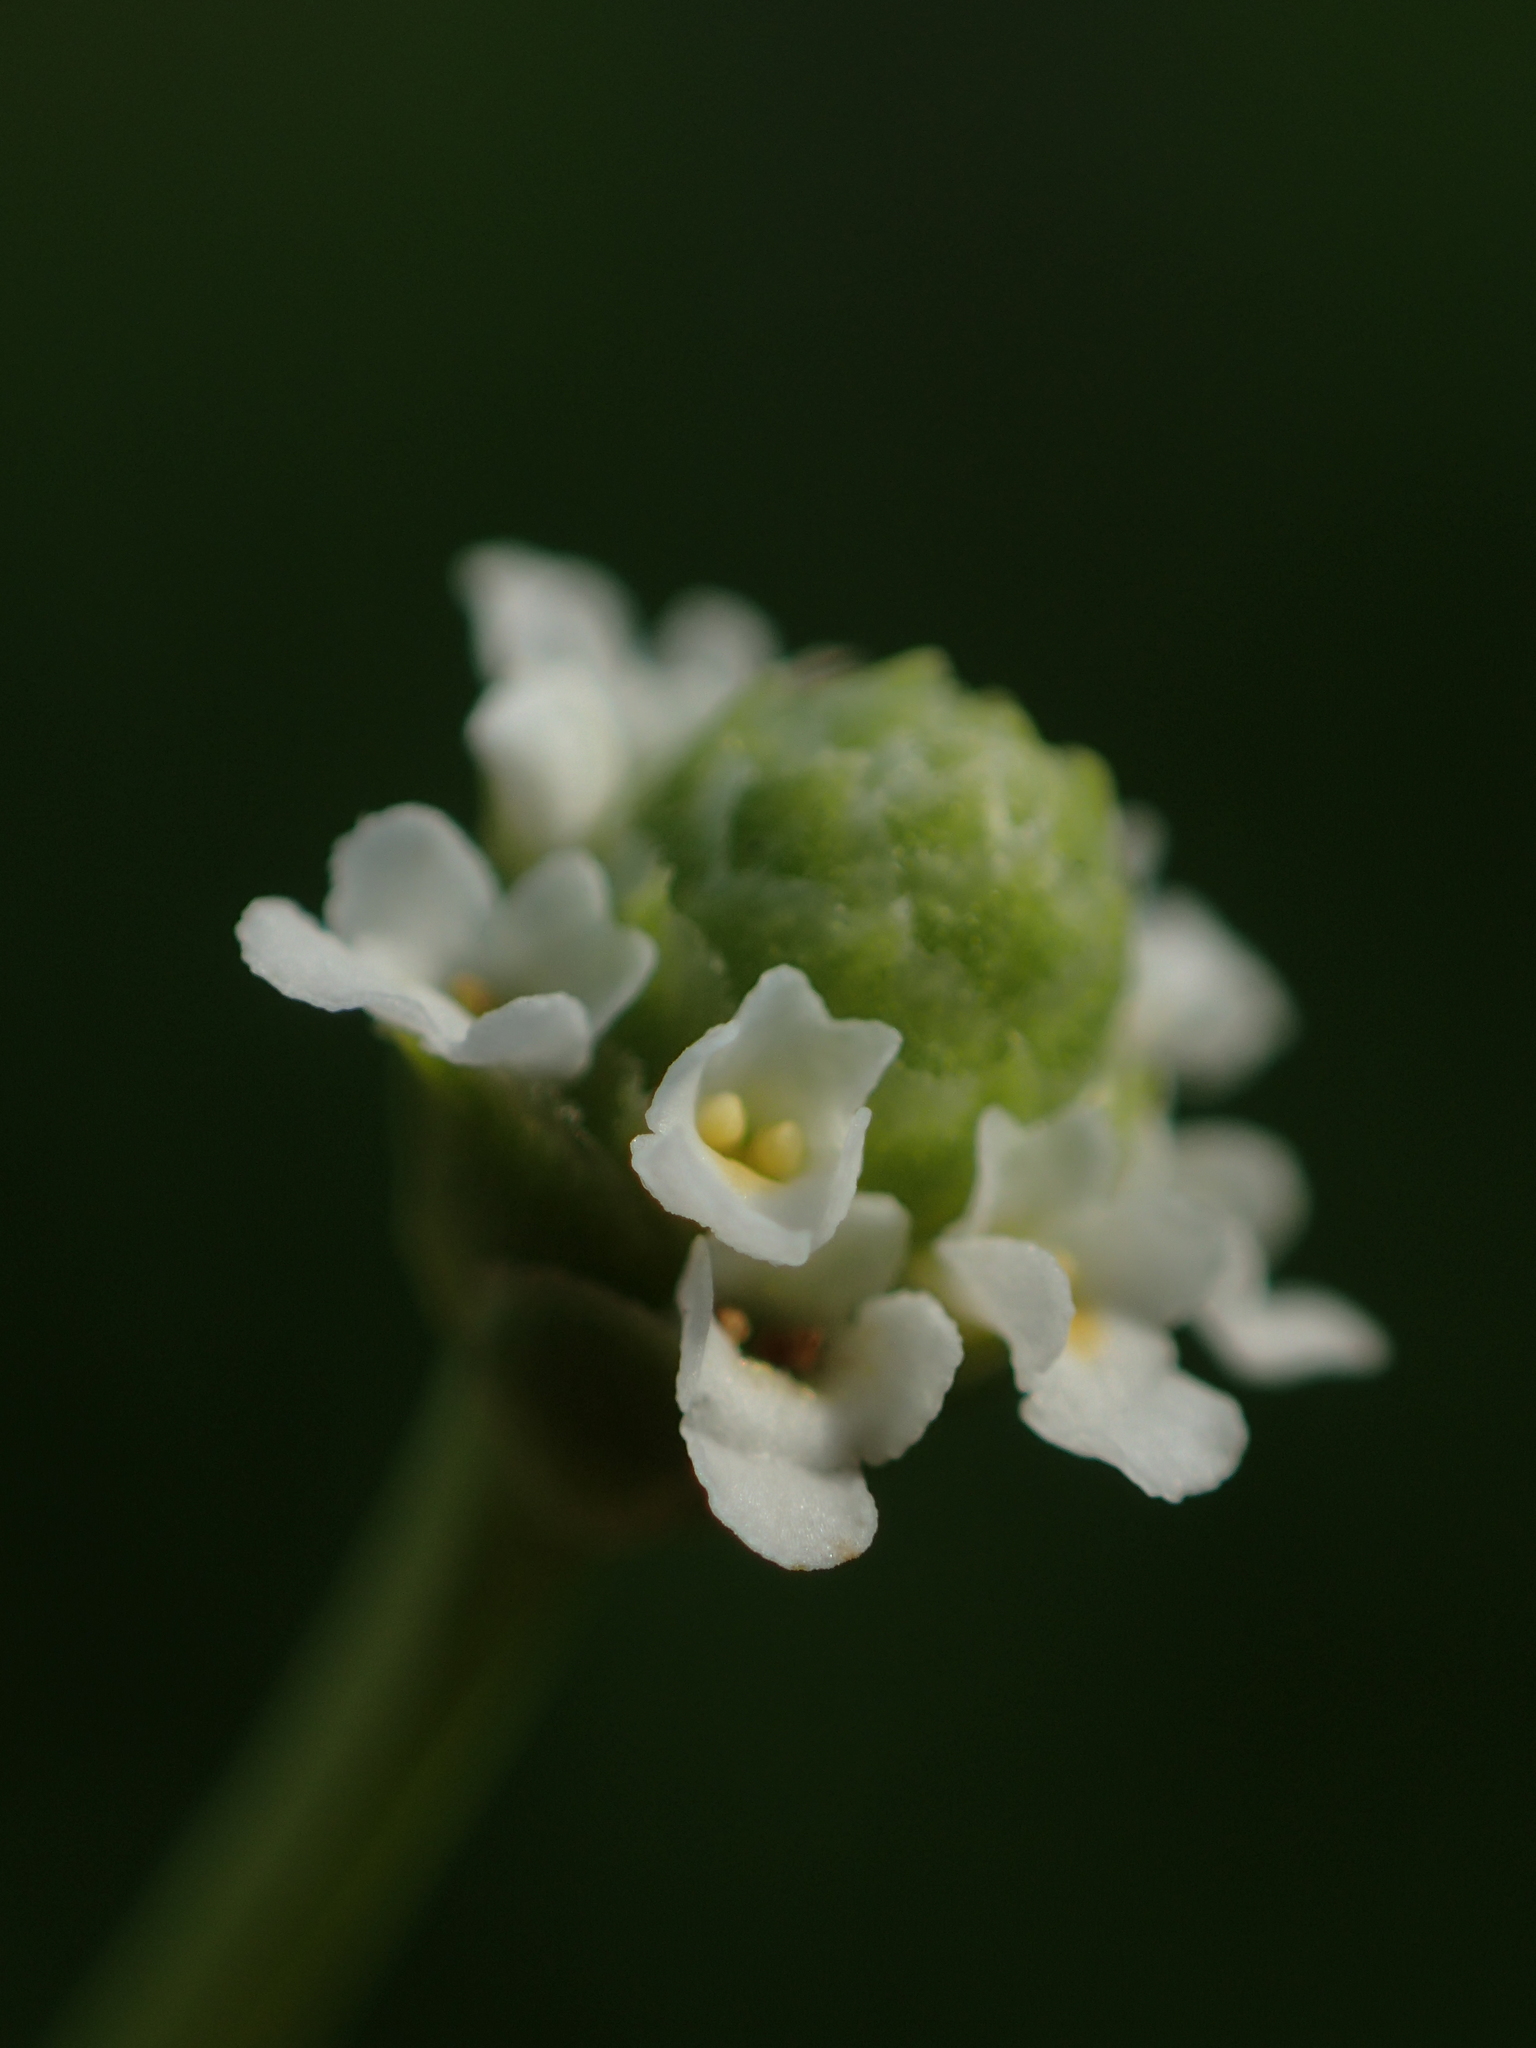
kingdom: Plantae
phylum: Tracheophyta
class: Magnoliopsida
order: Lamiales
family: Verbenaceae
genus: Phyla
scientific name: Phyla nodiflora
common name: Frogfruit
